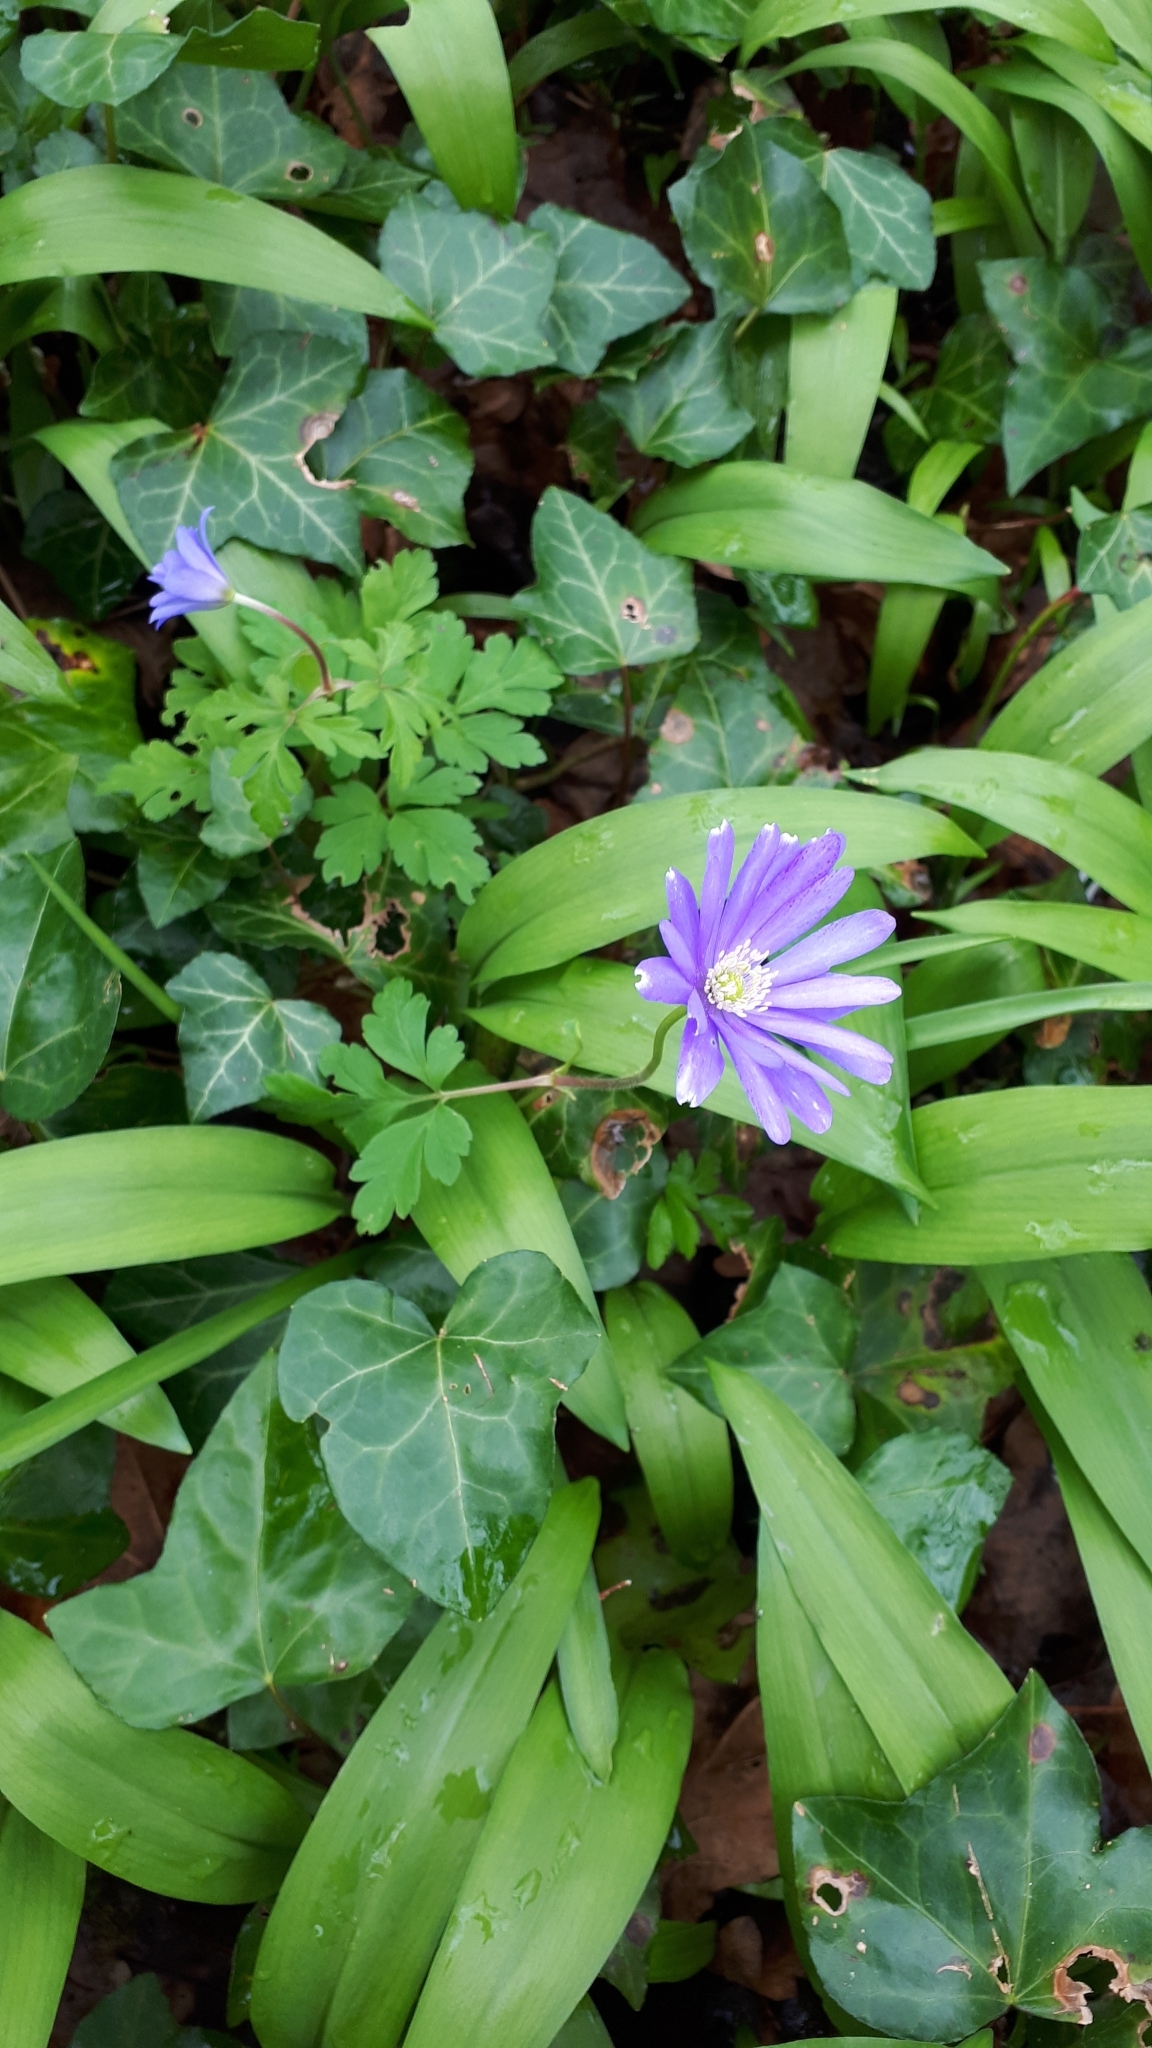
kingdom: Plantae
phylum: Tracheophyta
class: Magnoliopsida
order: Ranunculales
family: Ranunculaceae
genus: Anemone
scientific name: Anemone apennina
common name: Blue anemone
